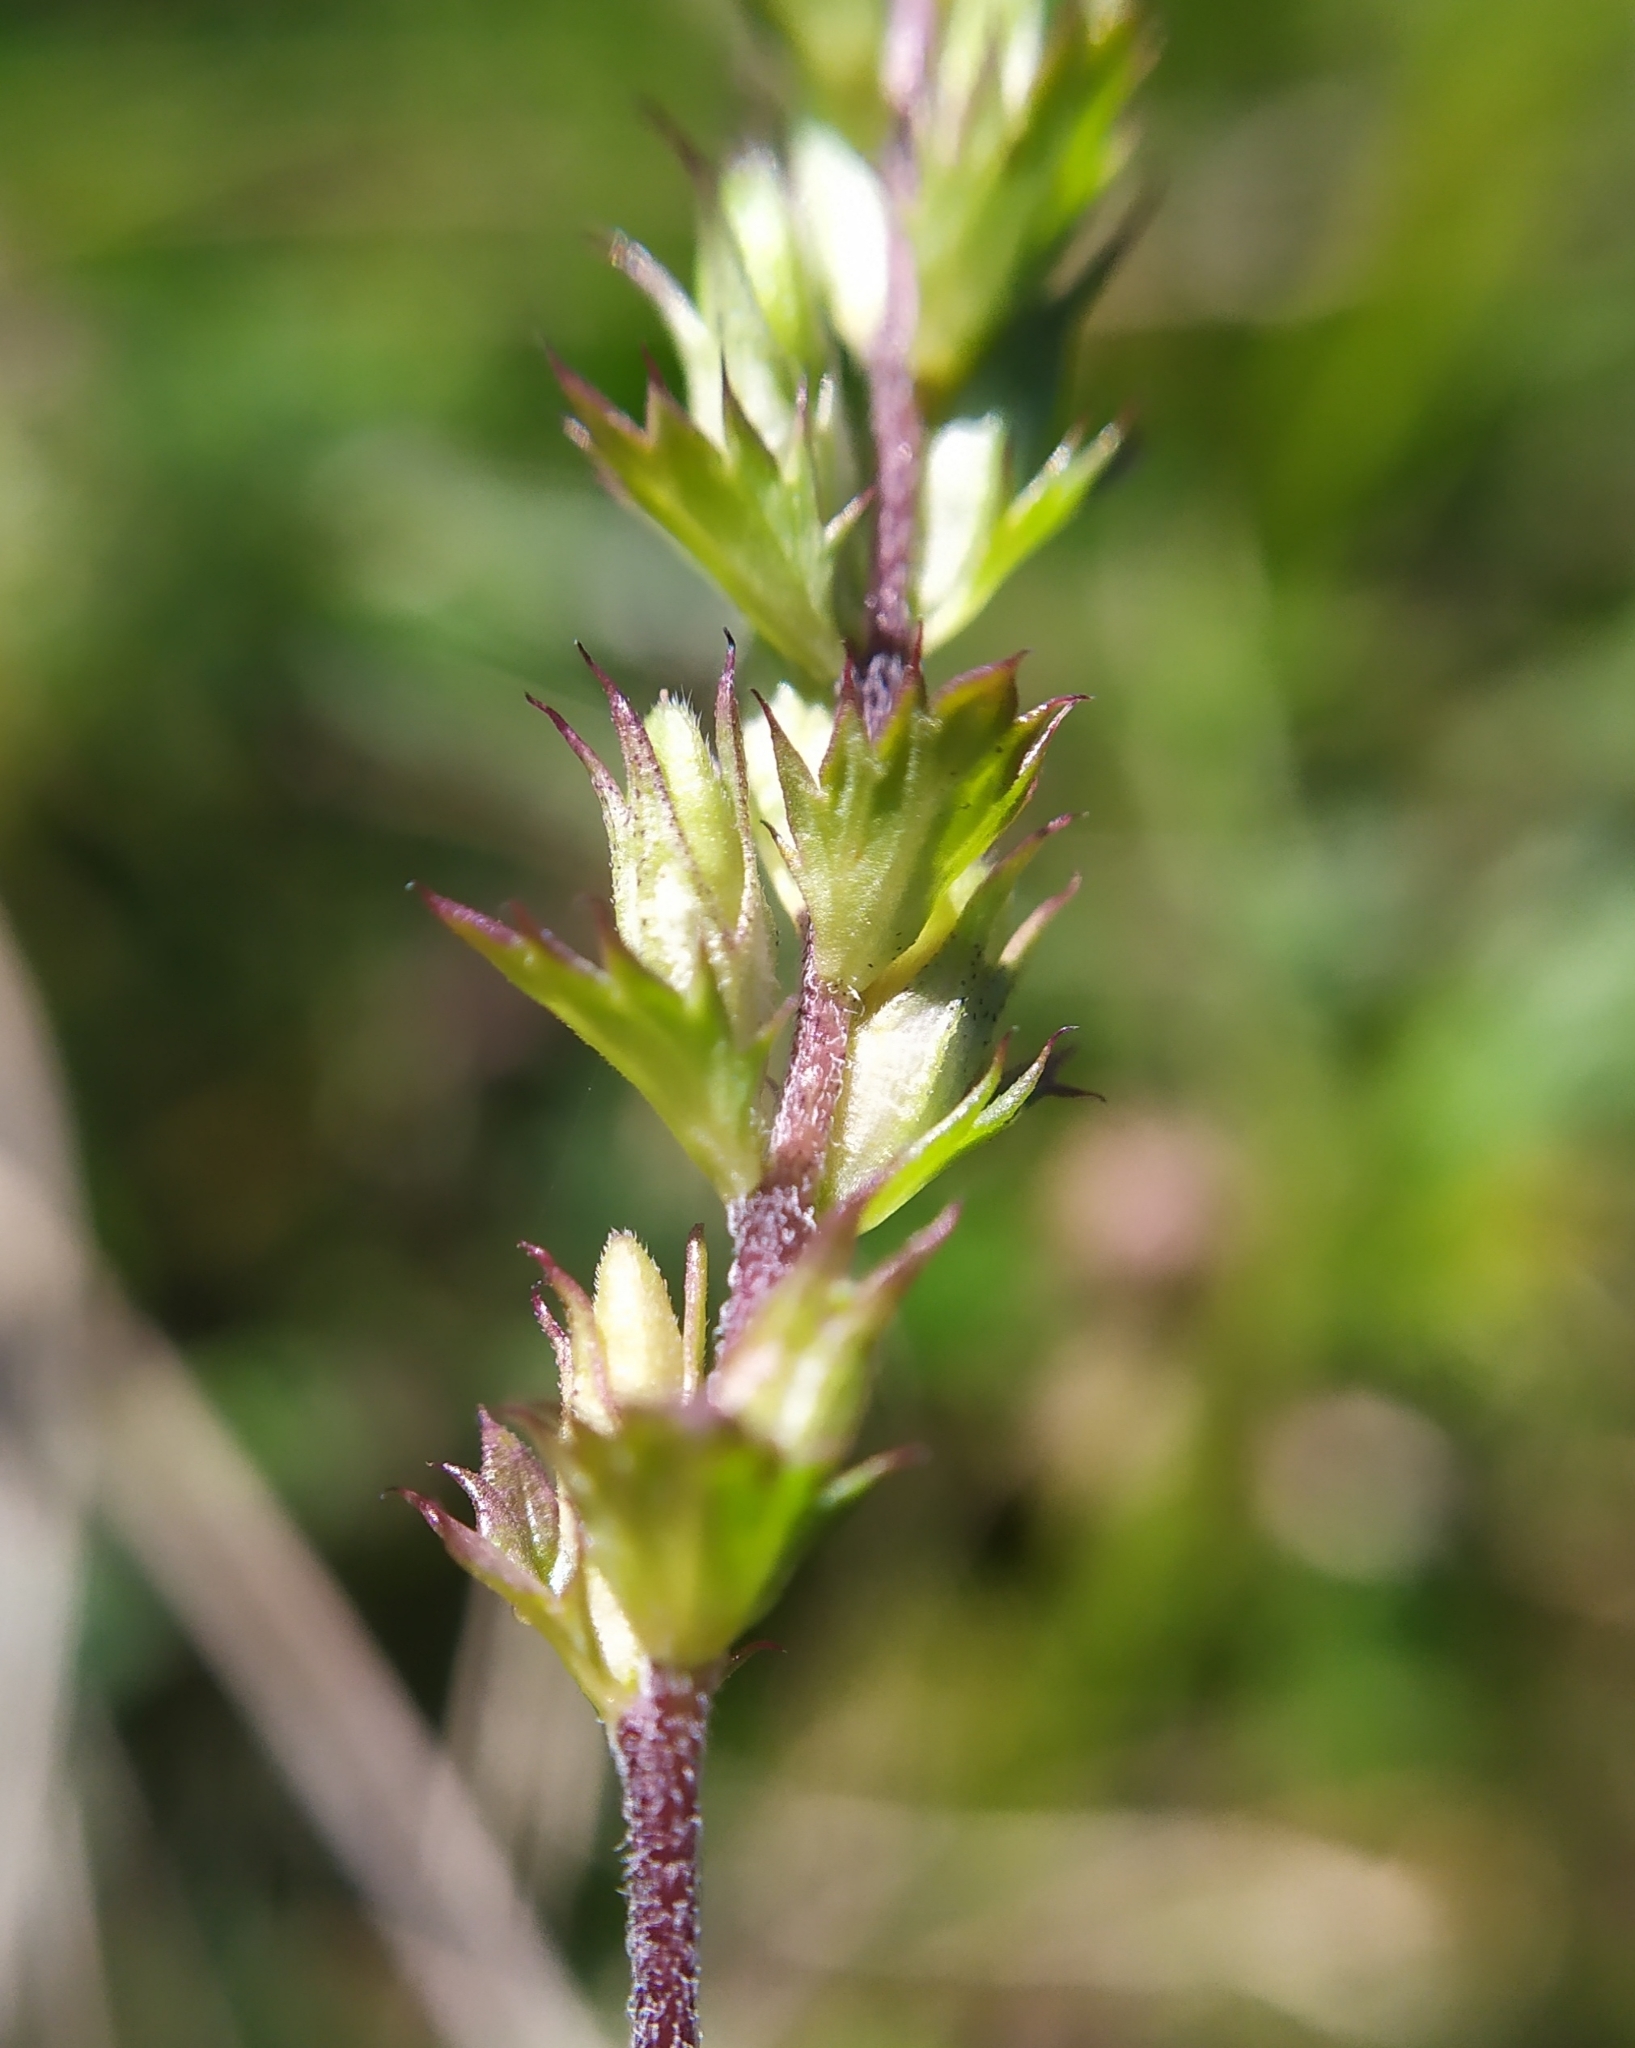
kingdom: Plantae
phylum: Tracheophyta
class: Magnoliopsida
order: Lamiales
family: Orobanchaceae
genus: Euphrasia
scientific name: Euphrasia stricta
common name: Drug eyebright
